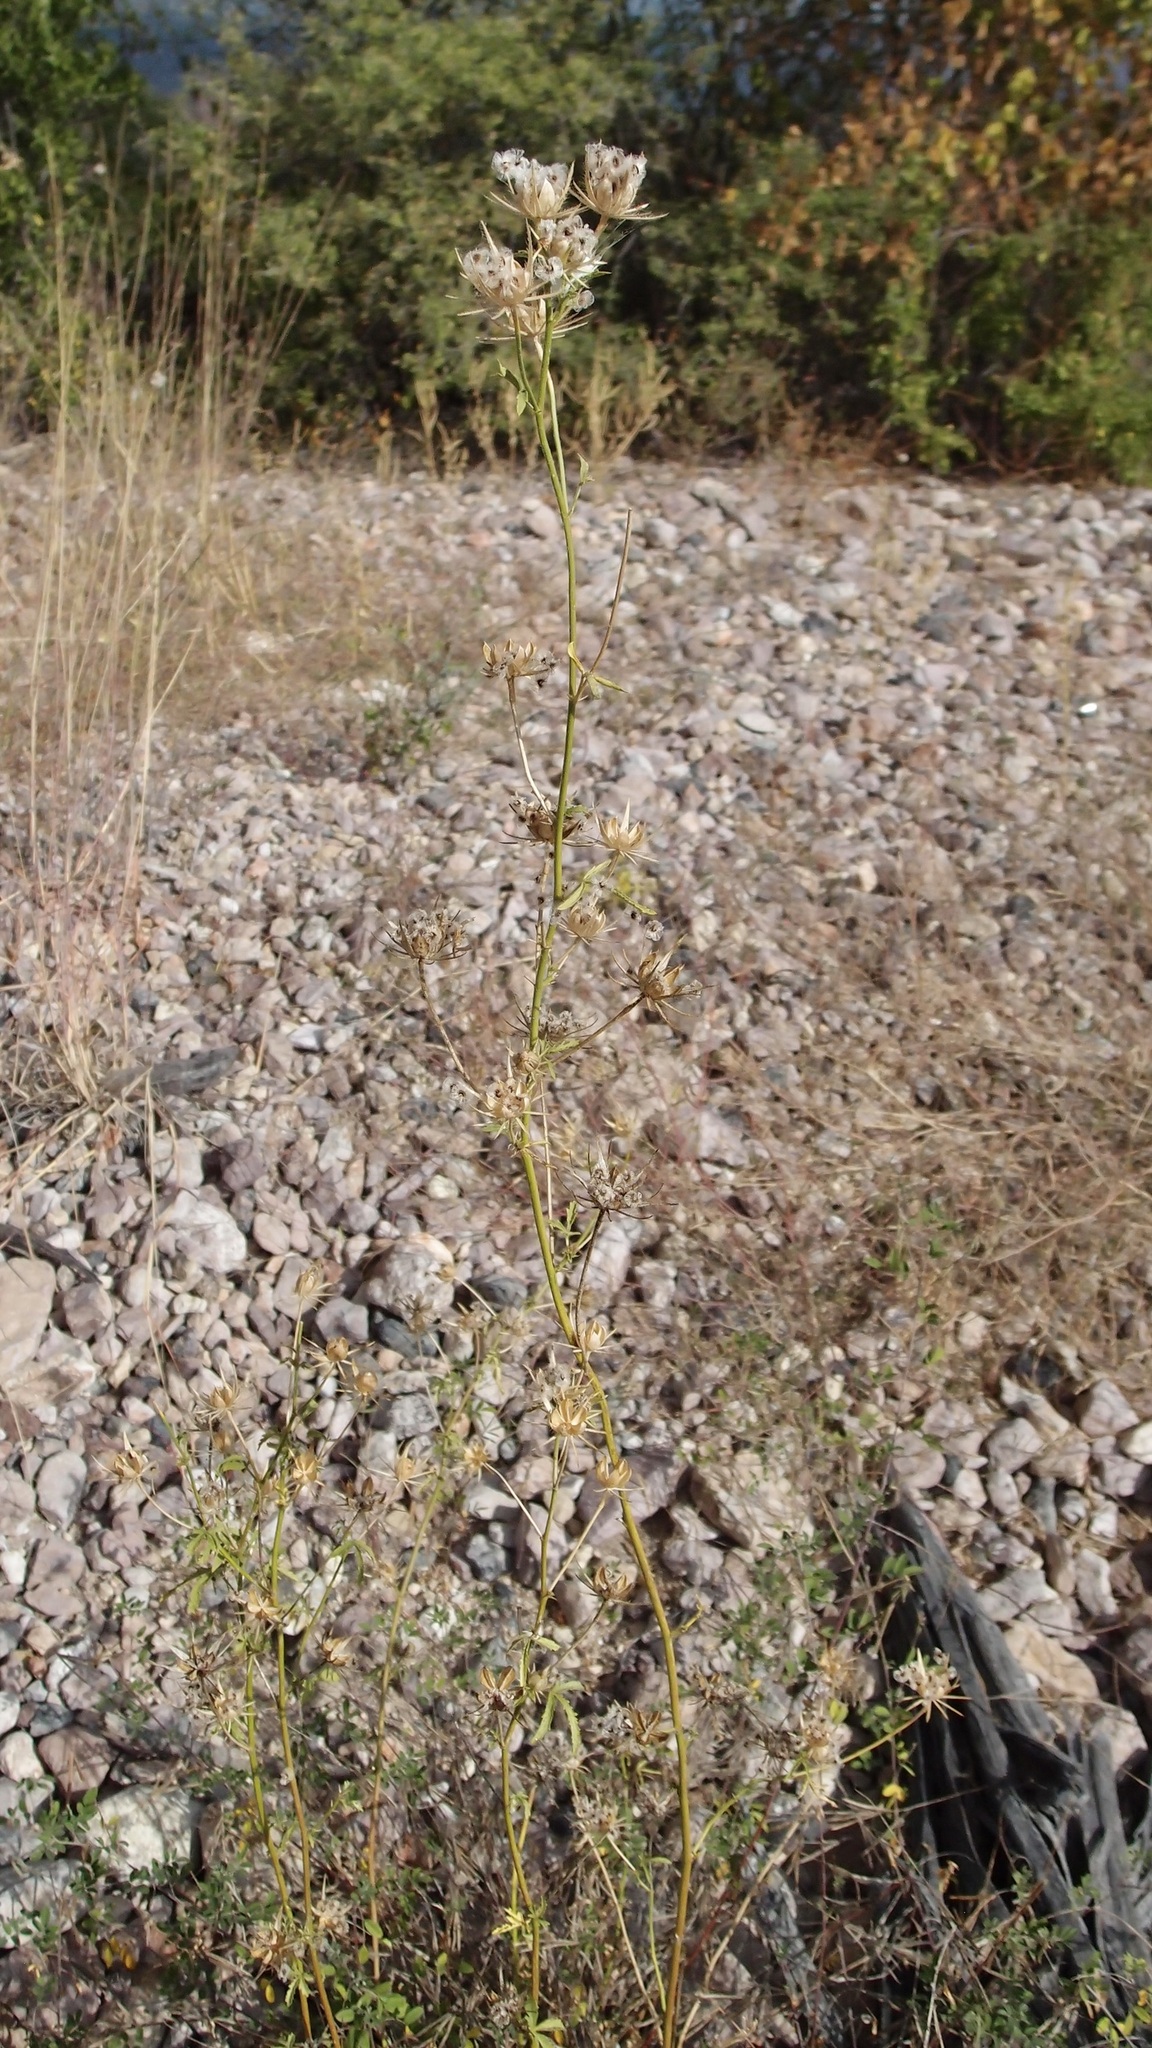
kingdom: Plantae
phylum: Tracheophyta
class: Magnoliopsida
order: Malvales
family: Malvaceae
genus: Hibiscus
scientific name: Hibiscus biseptus
